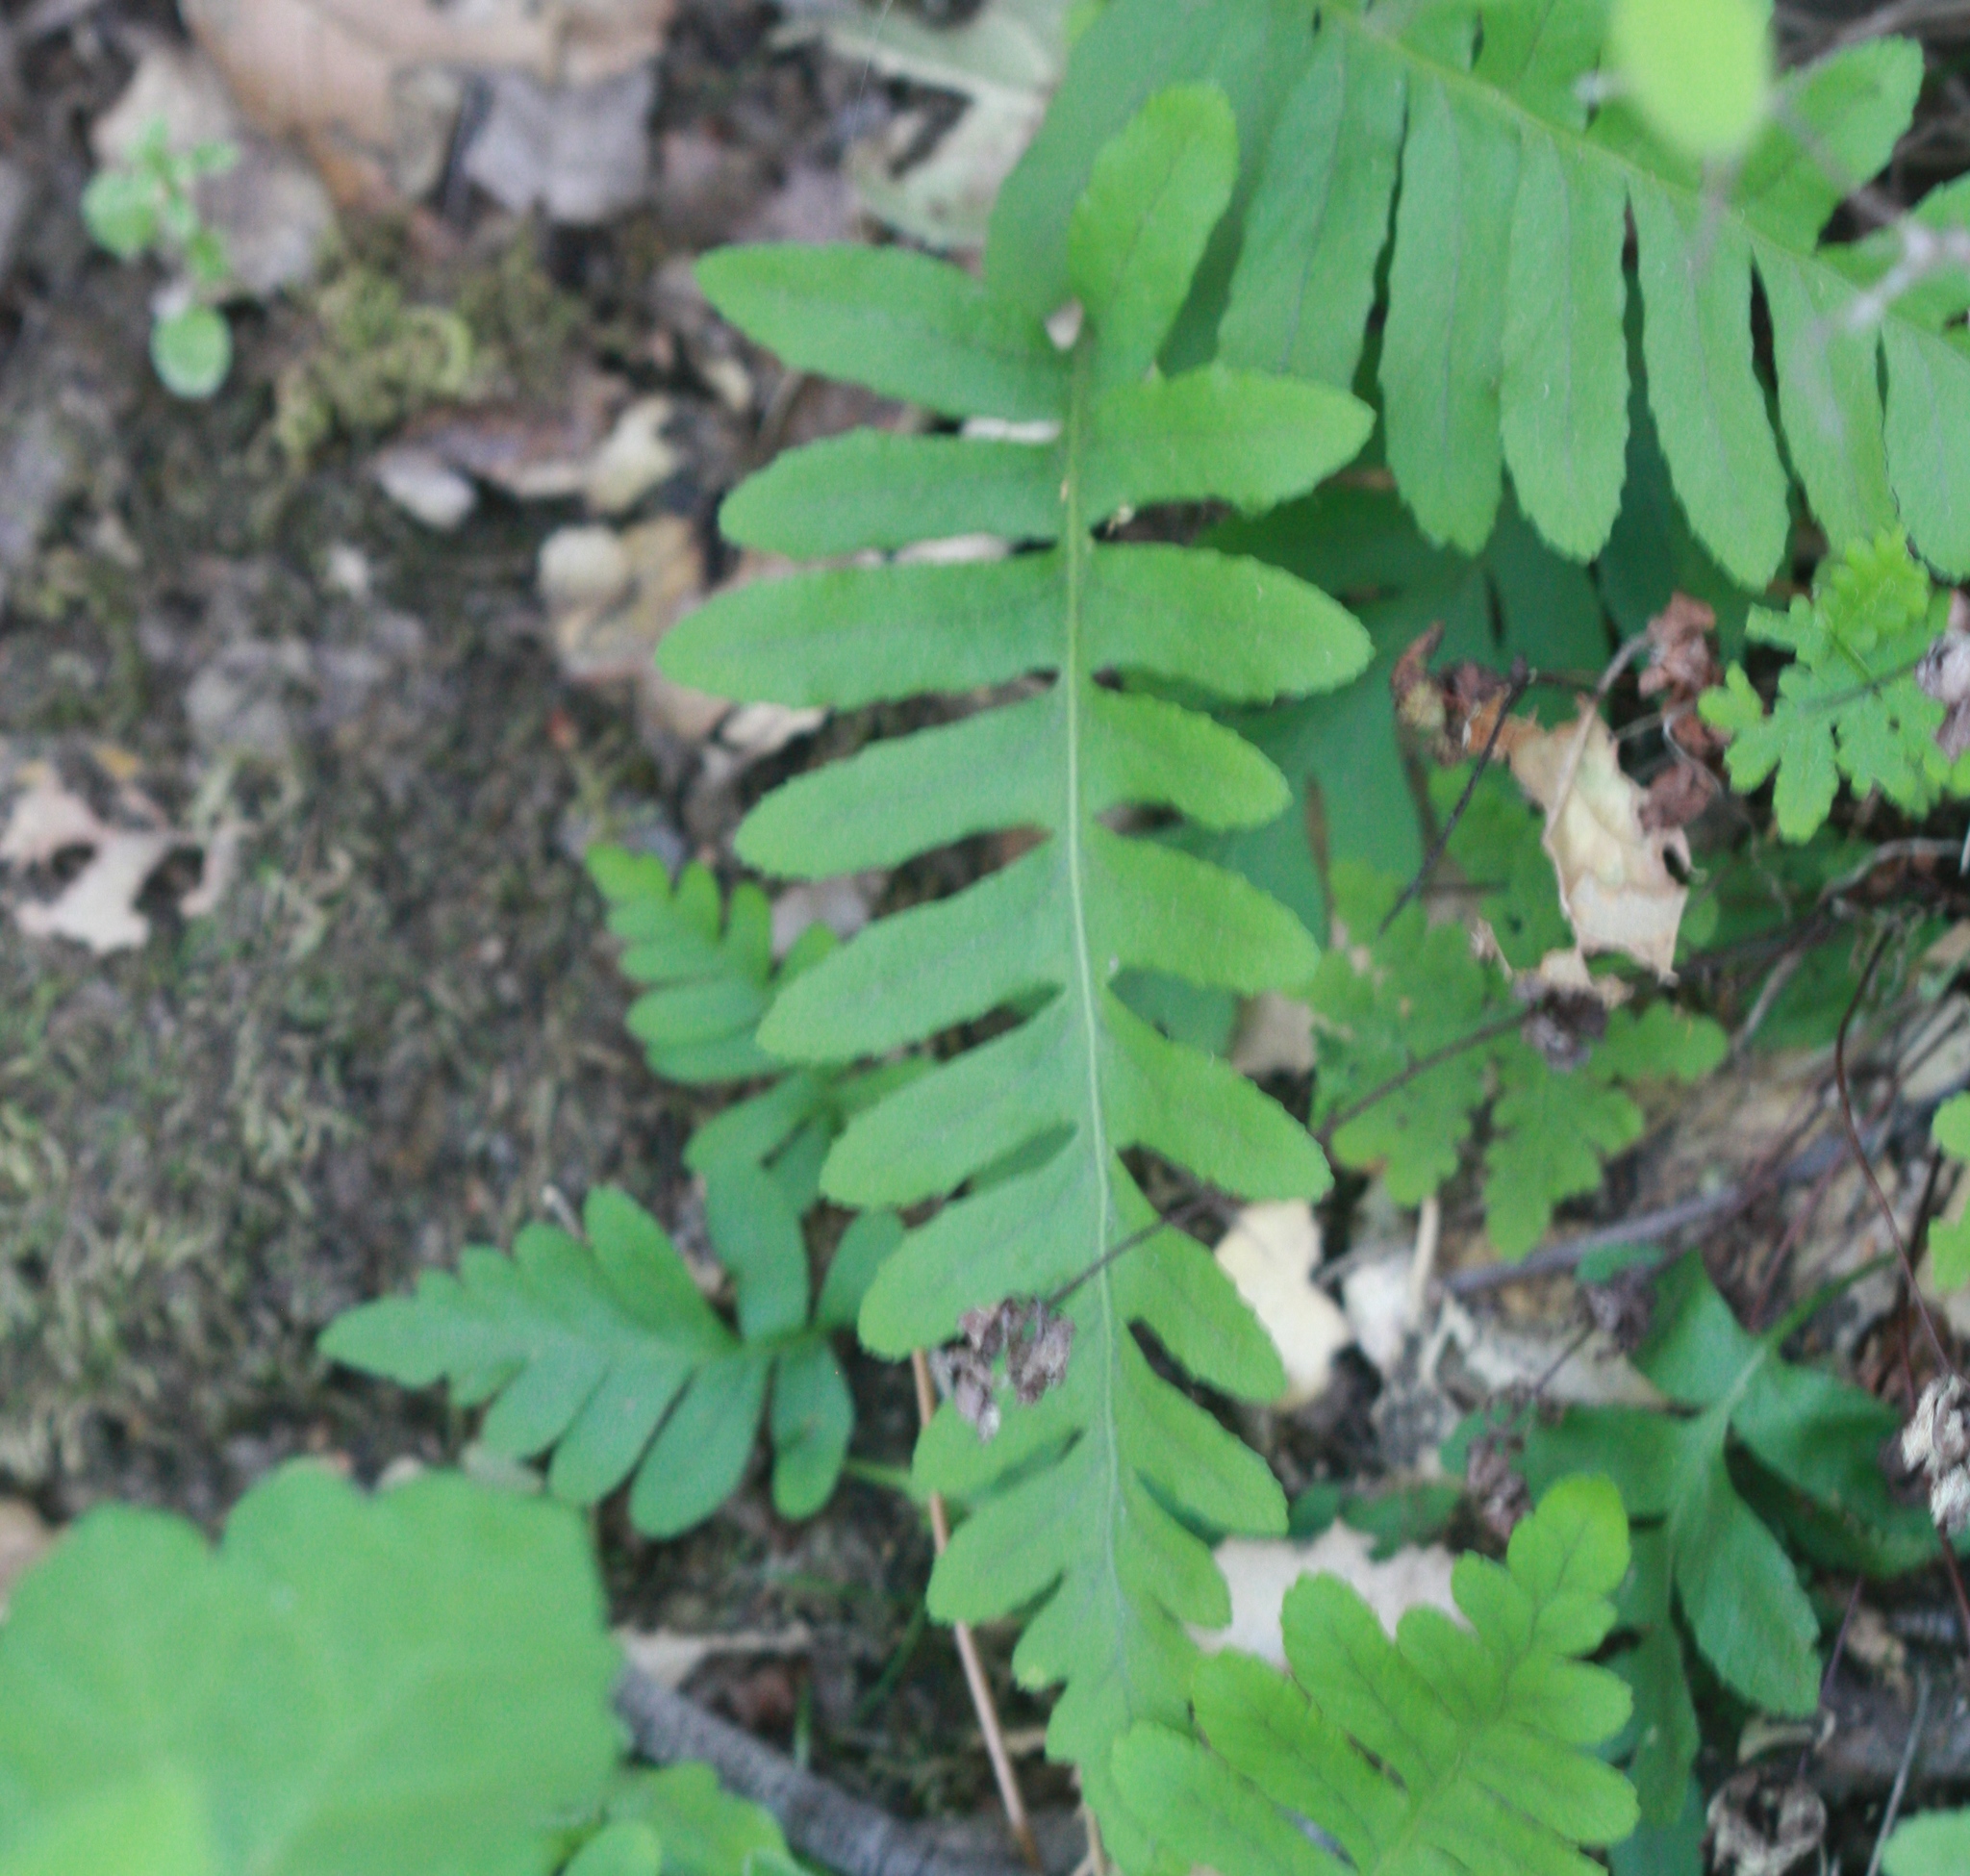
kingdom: Plantae
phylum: Tracheophyta
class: Polypodiopsida
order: Polypodiales
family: Polypodiaceae
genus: Polypodium
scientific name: Polypodium californicum
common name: California polypody
